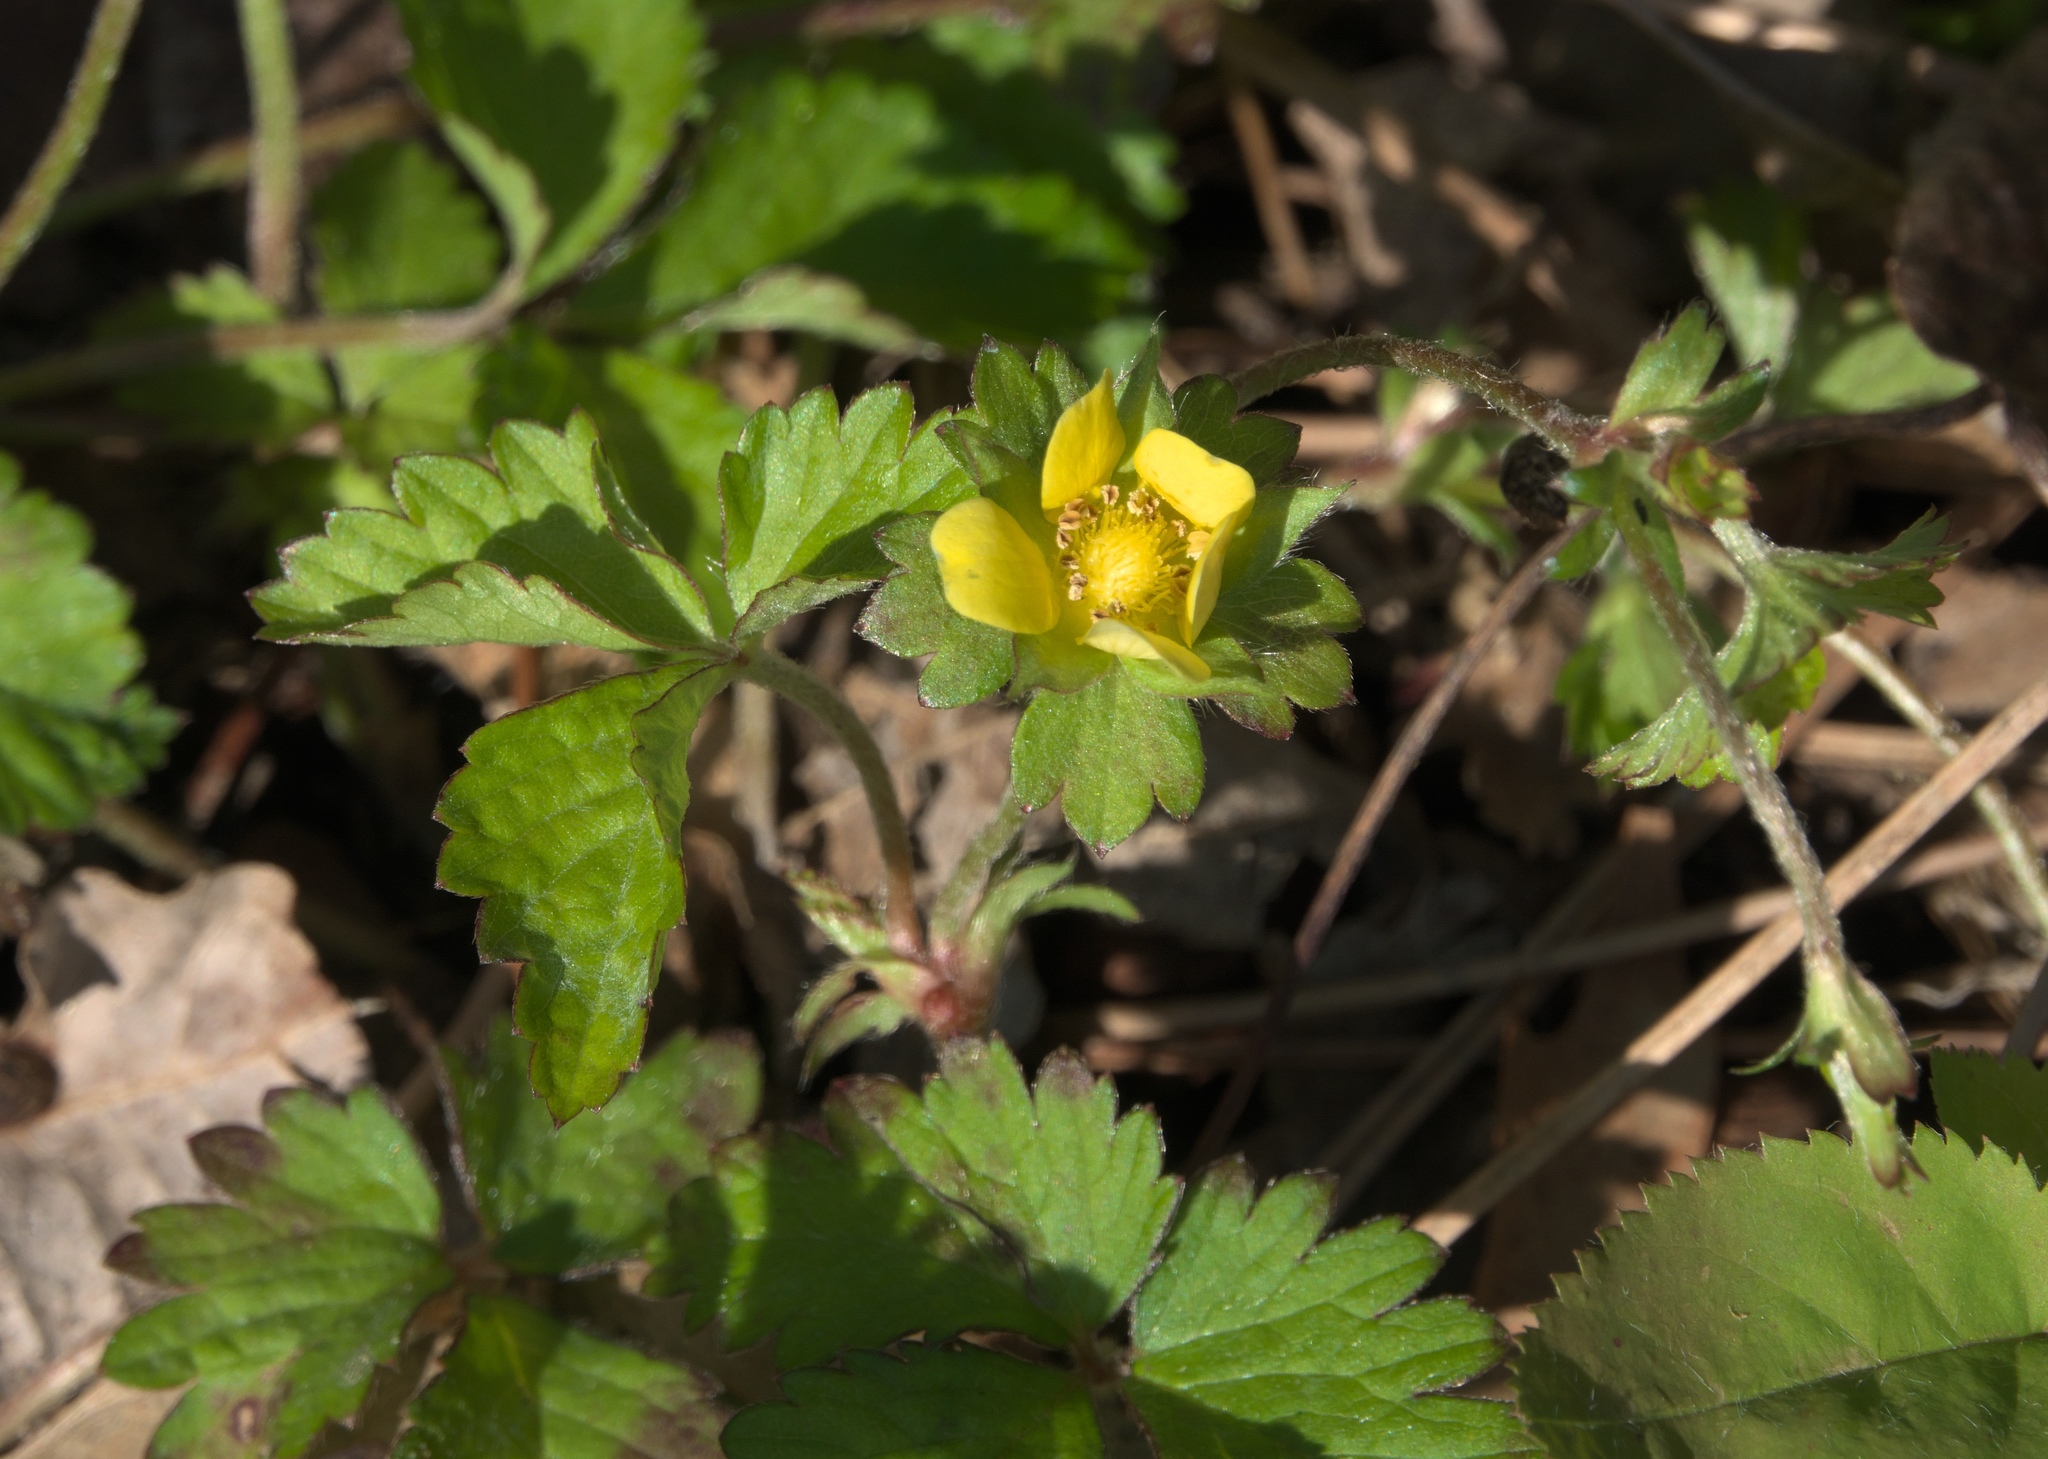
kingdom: Plantae
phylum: Tracheophyta
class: Magnoliopsida
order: Rosales
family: Rosaceae
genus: Potentilla
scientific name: Potentilla indica
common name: Yellow-flowered strawberry
